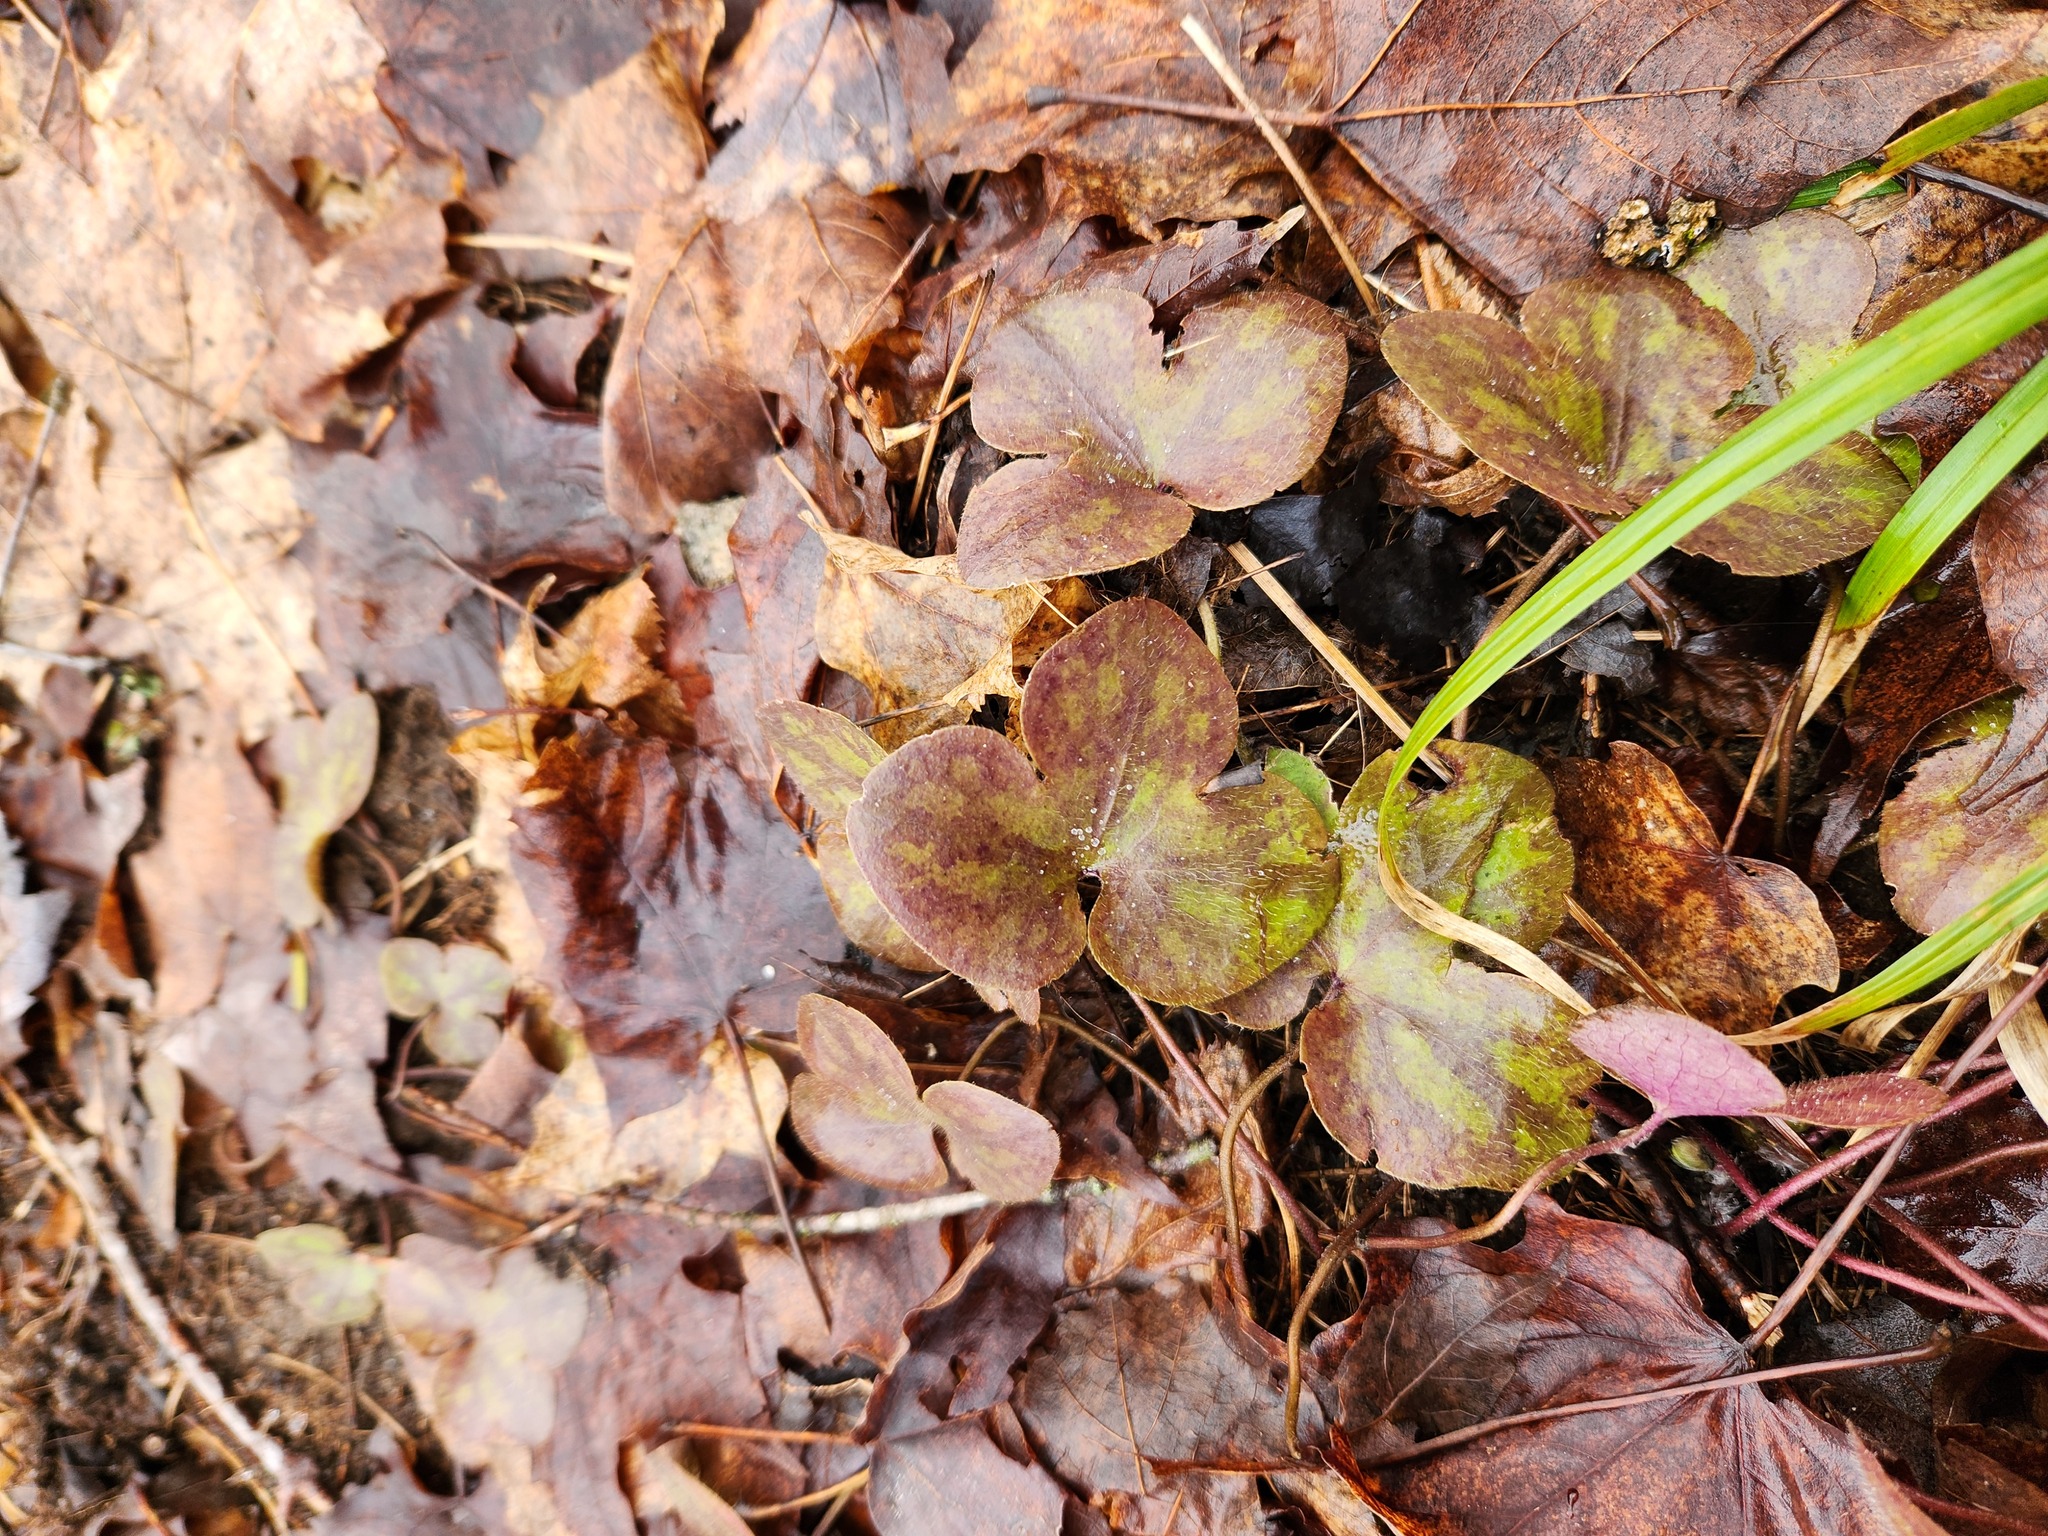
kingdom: Plantae
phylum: Tracheophyta
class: Magnoliopsida
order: Ranunculales
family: Ranunculaceae
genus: Hepatica
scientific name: Hepatica americana
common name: American hepatica
